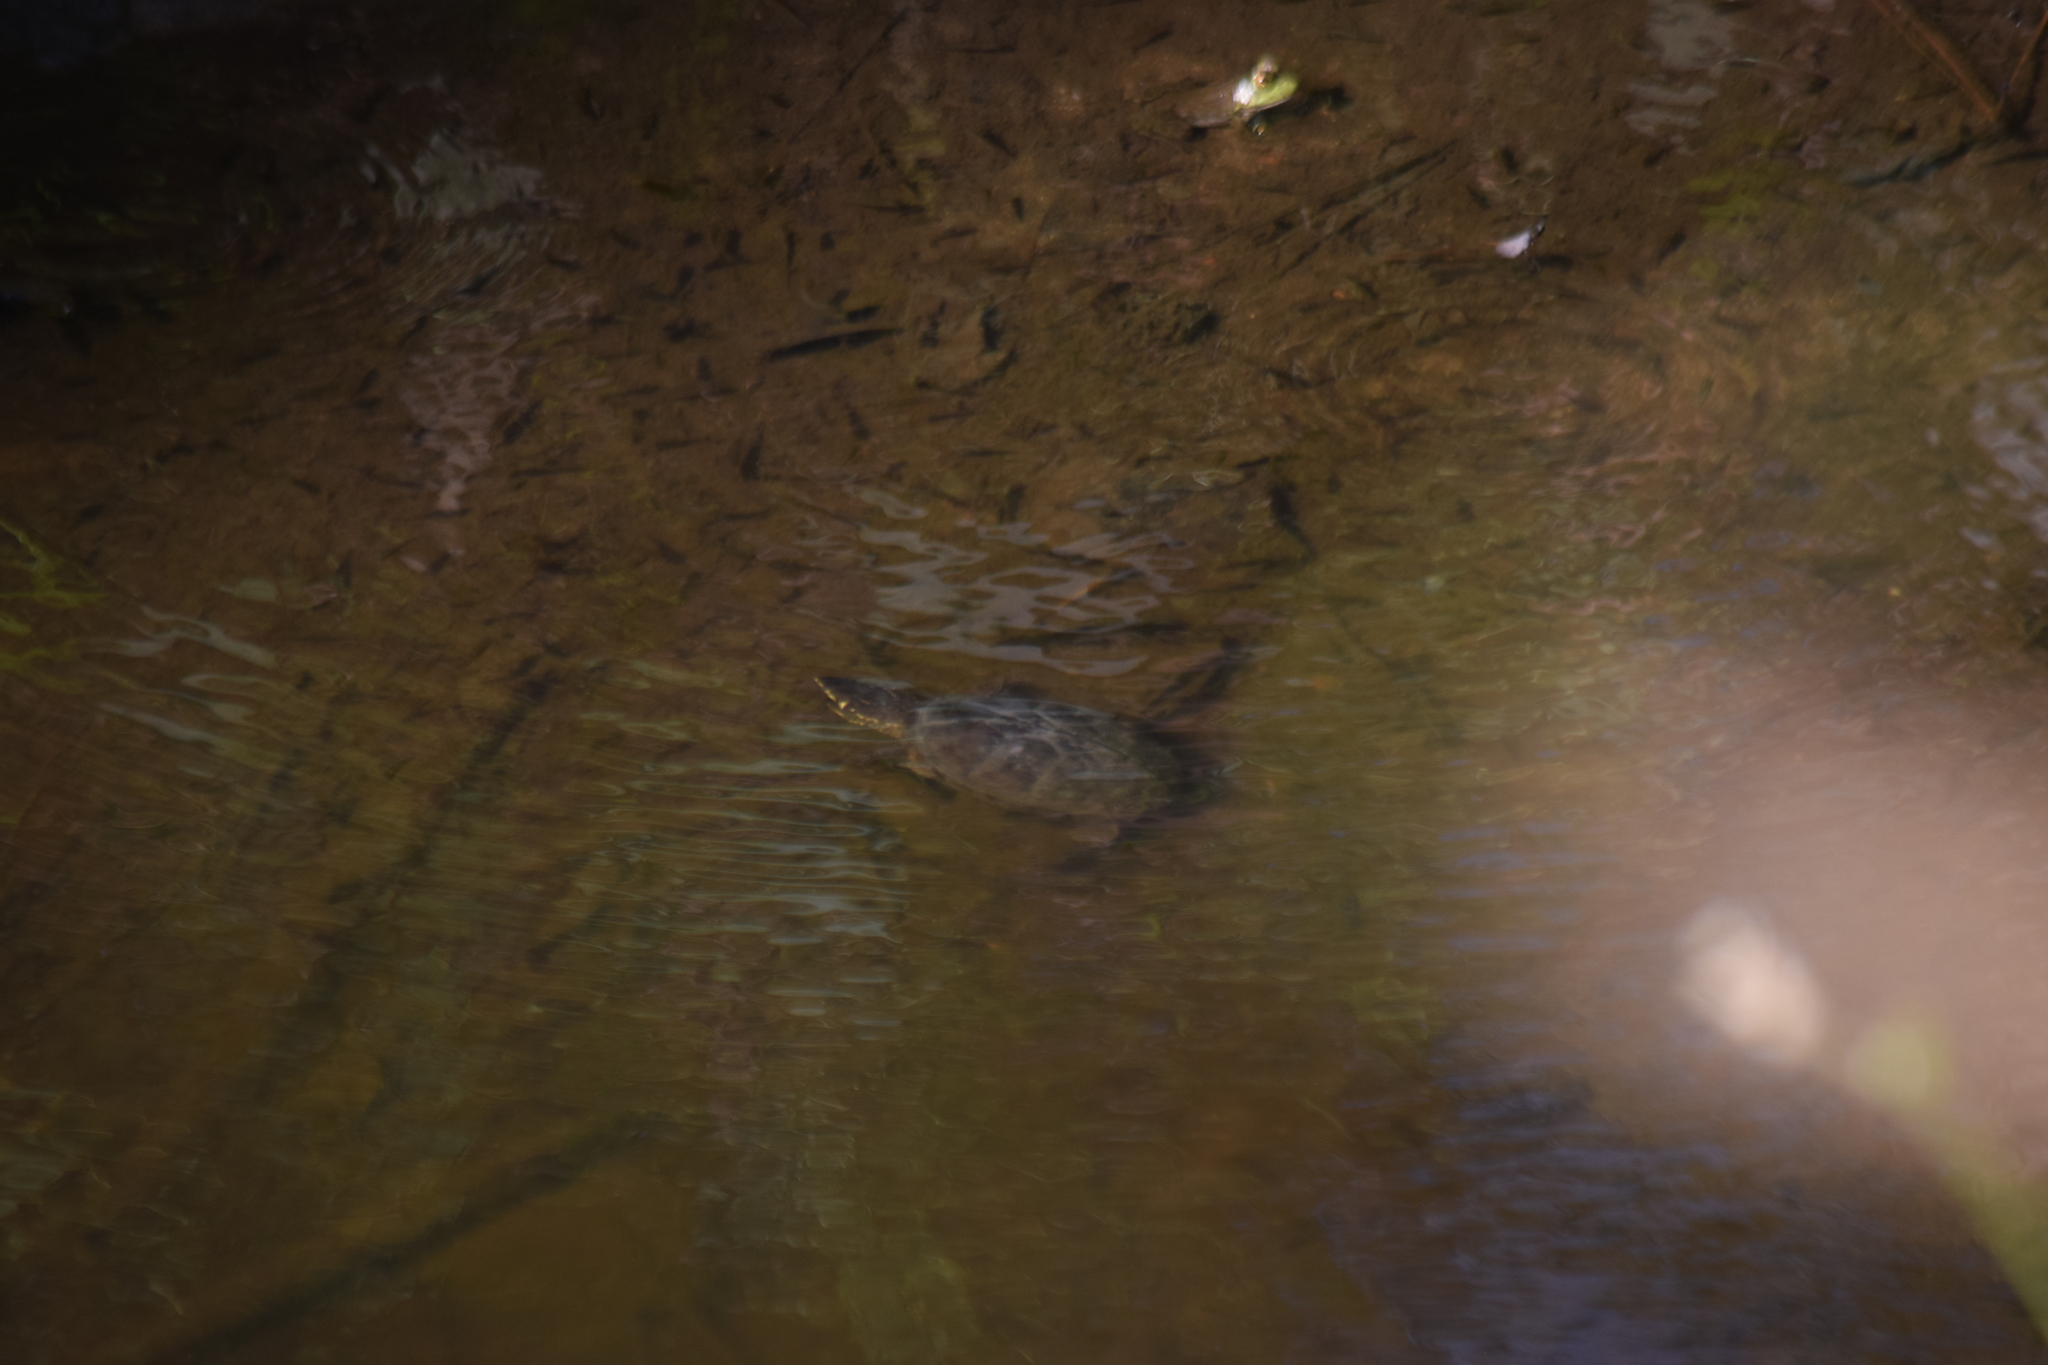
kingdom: Animalia
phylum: Chordata
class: Testudines
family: Kinosternidae
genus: Sternotherus
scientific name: Sternotherus odoratus
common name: Common musk turtle
